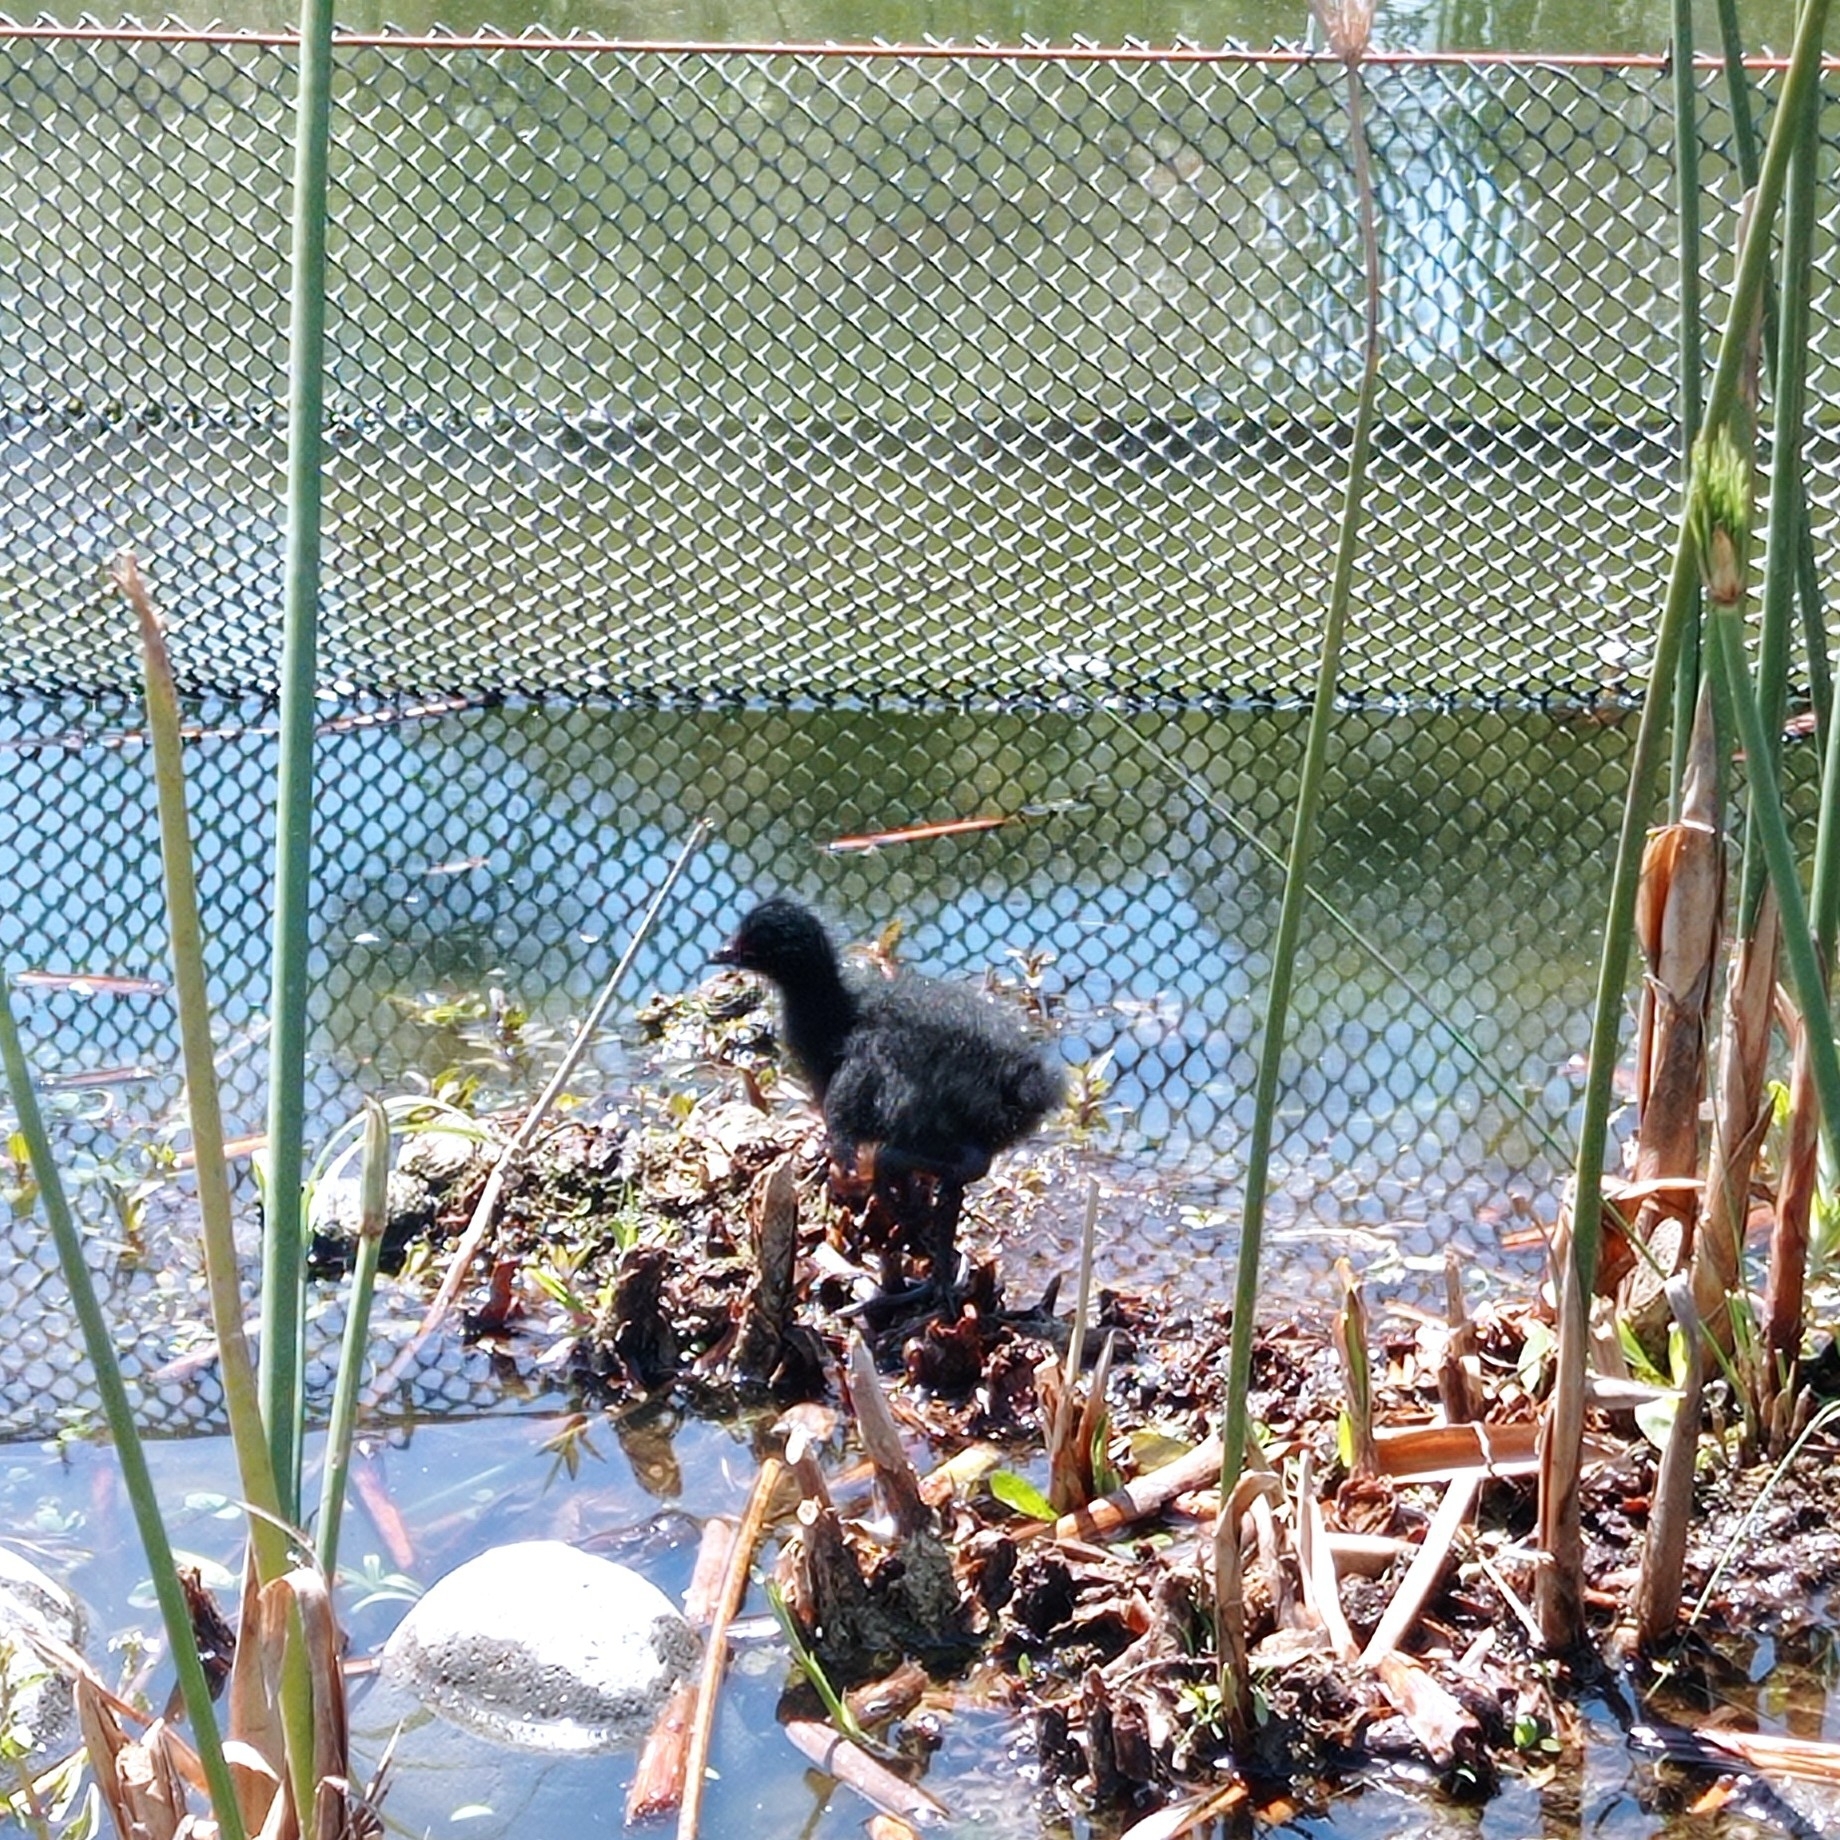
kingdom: Animalia
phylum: Chordata
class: Aves
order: Gruiformes
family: Rallidae
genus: Gallinula
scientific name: Gallinula melanops
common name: Spot-flanked gallinule
